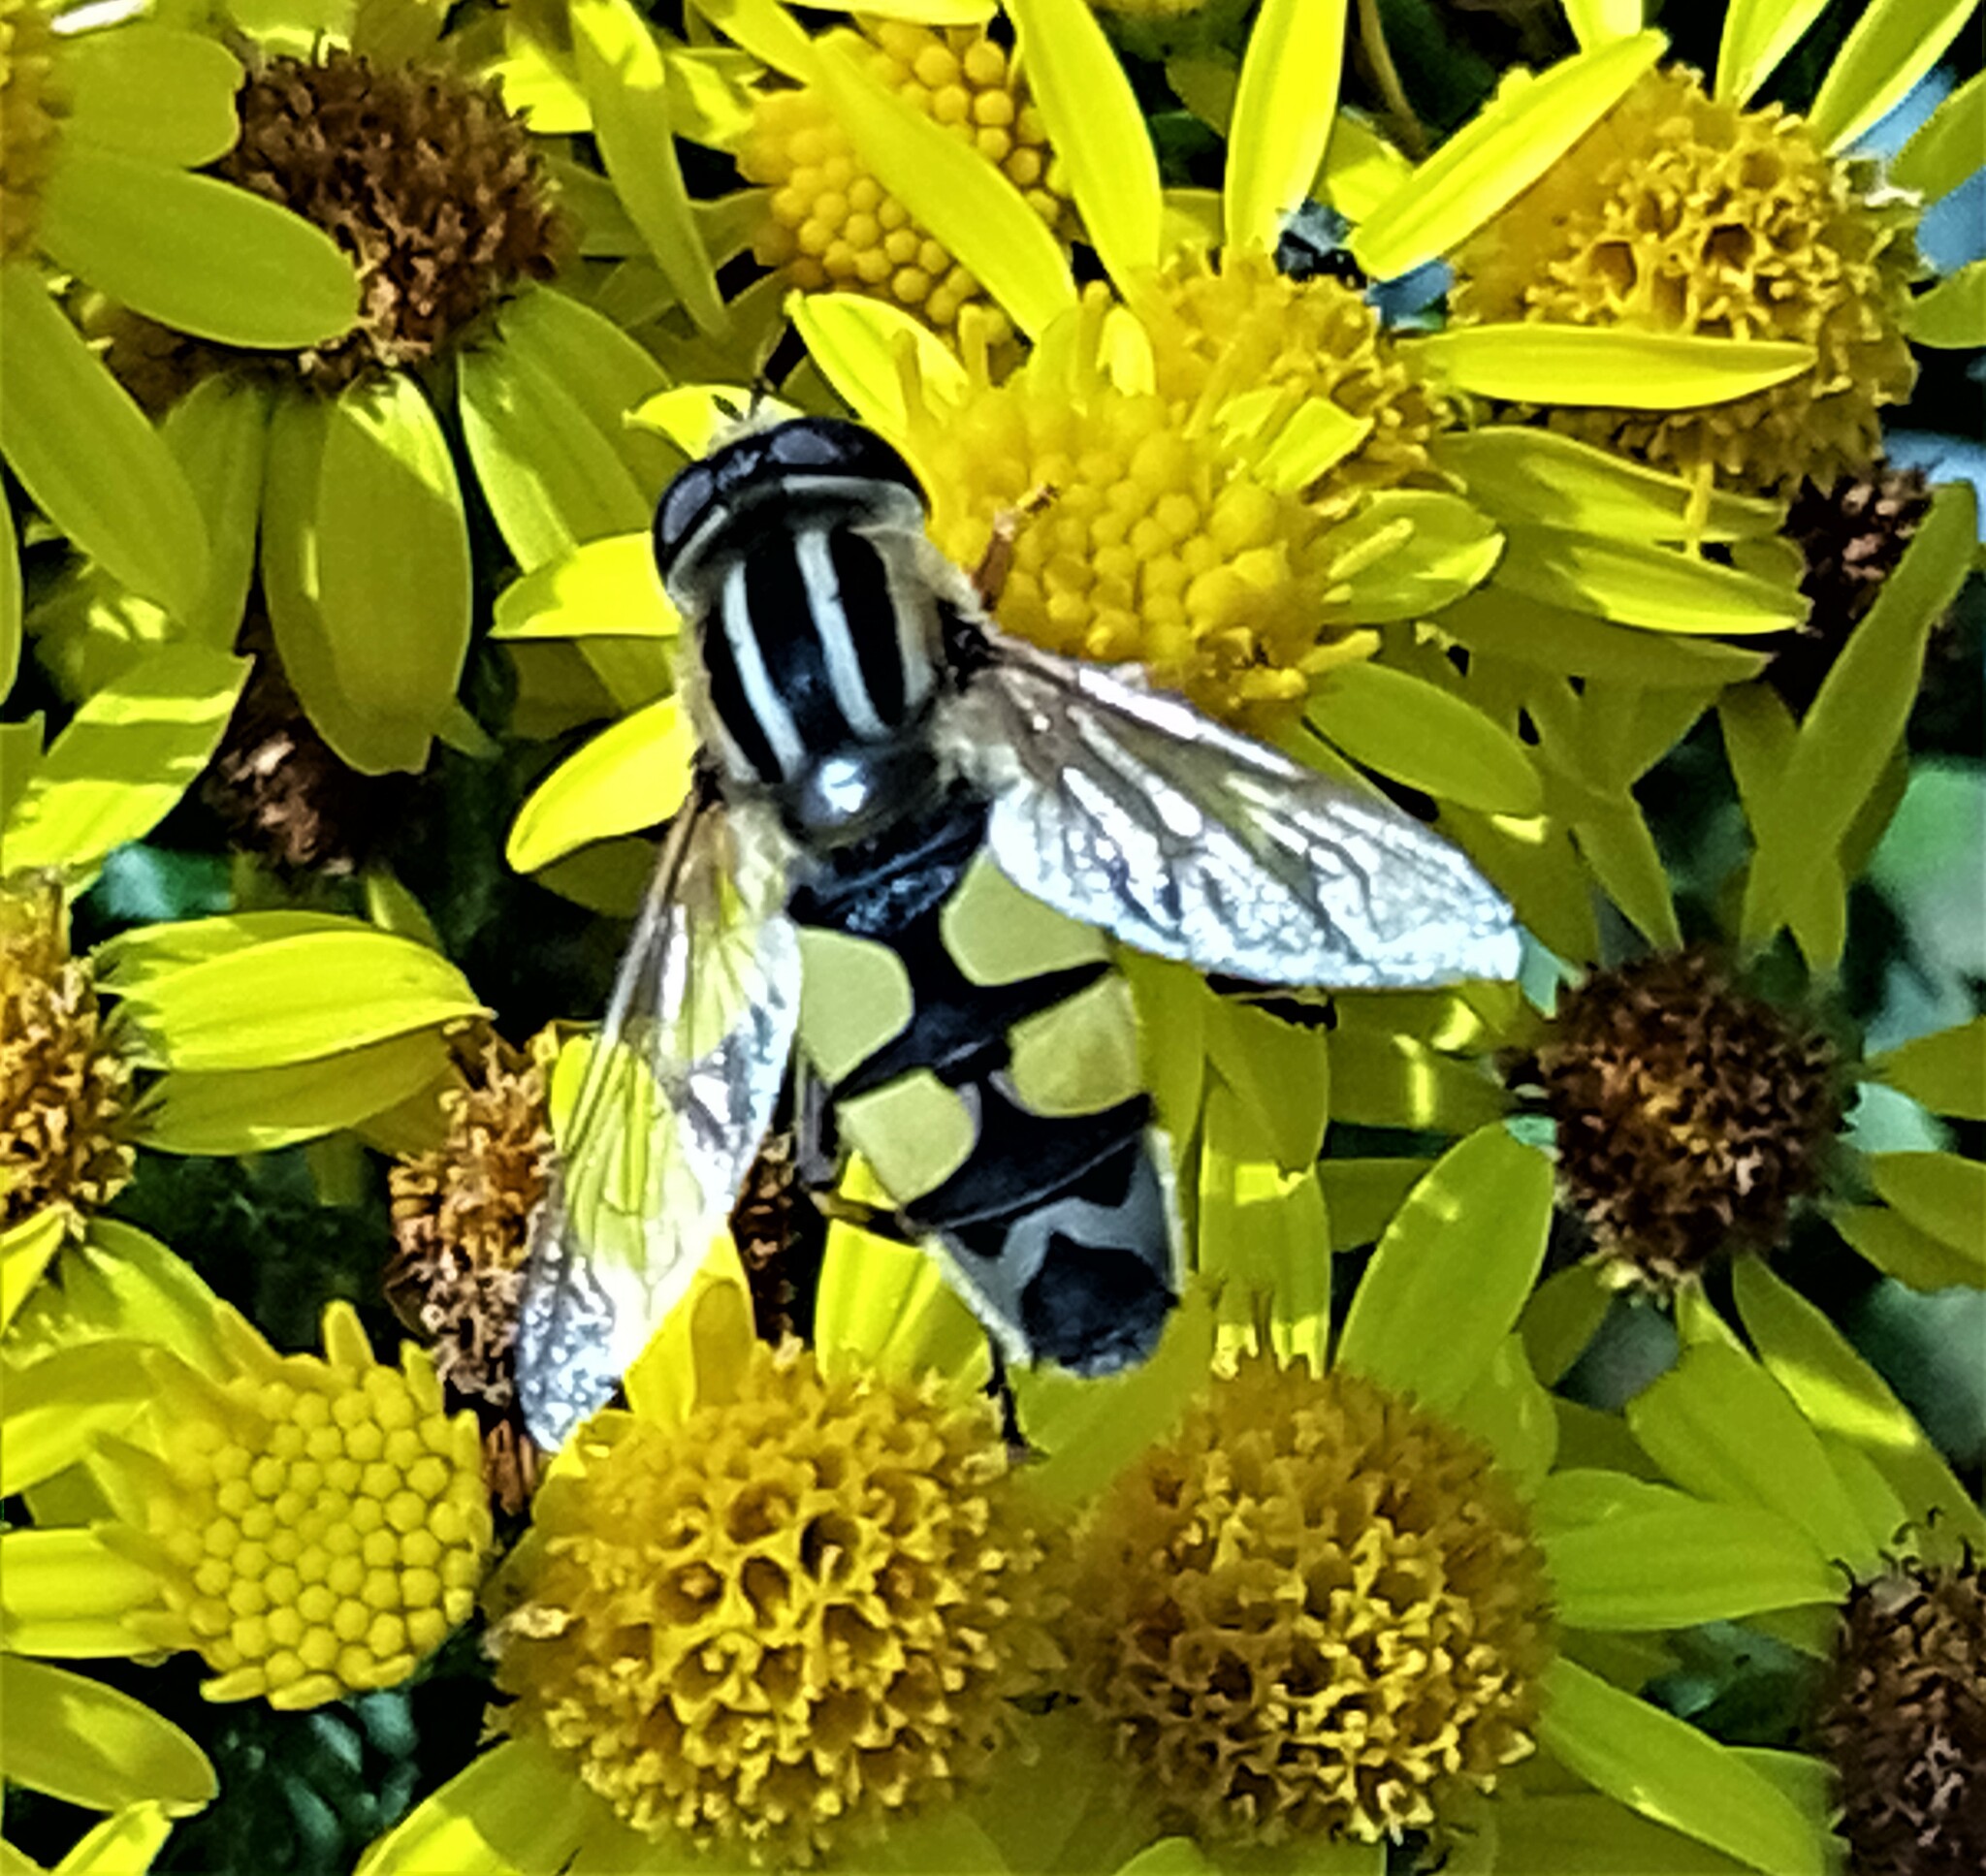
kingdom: Animalia
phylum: Arthropoda
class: Insecta
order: Diptera
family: Syrphidae
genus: Helophilus
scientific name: Helophilus trivittatus
